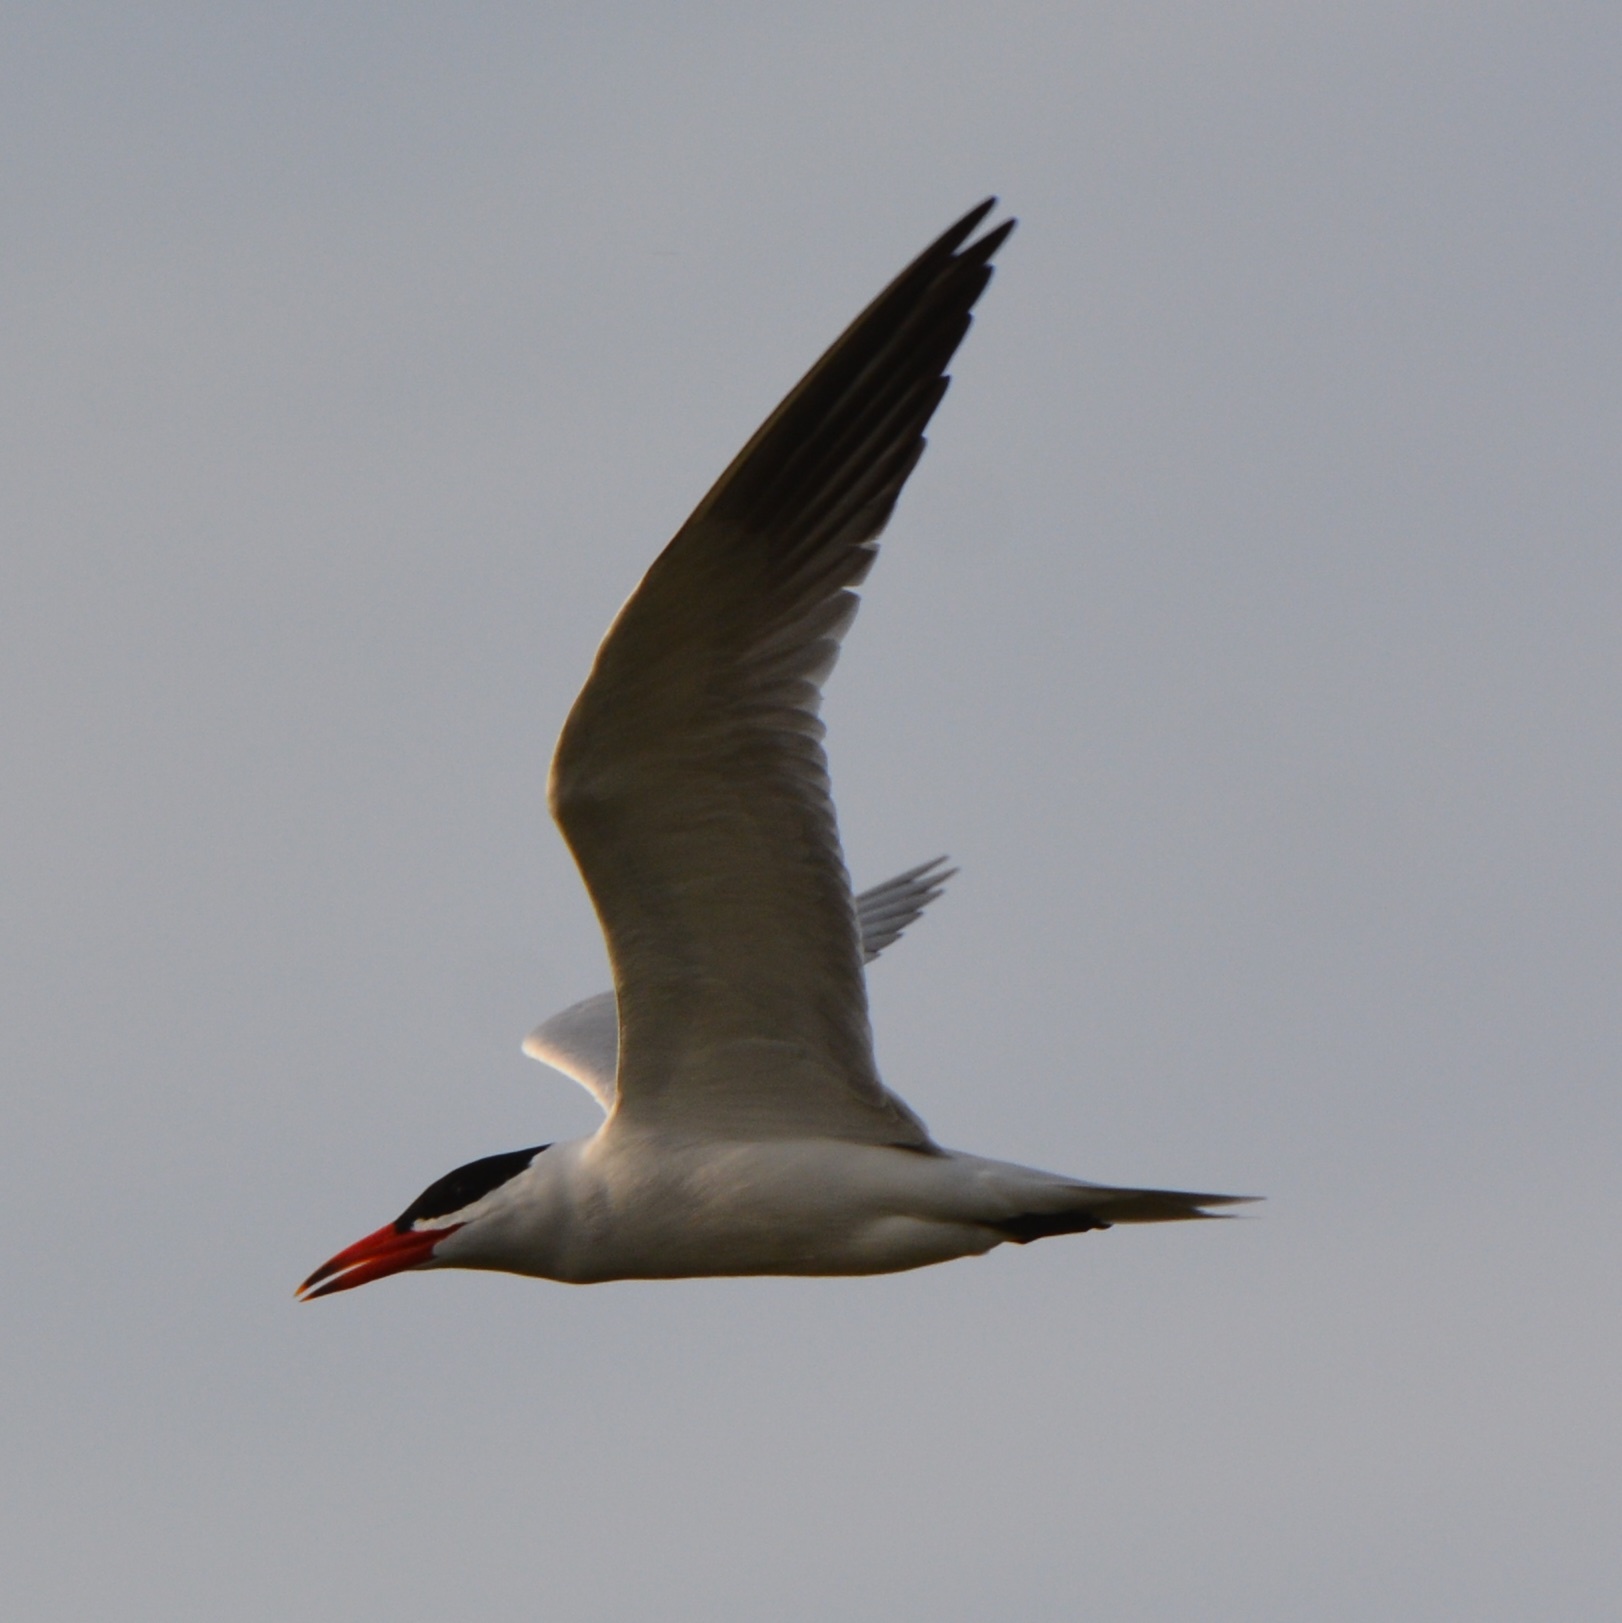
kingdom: Animalia
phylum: Chordata
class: Aves
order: Charadriiformes
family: Laridae
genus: Hydroprogne
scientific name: Hydroprogne caspia
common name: Caspian tern
